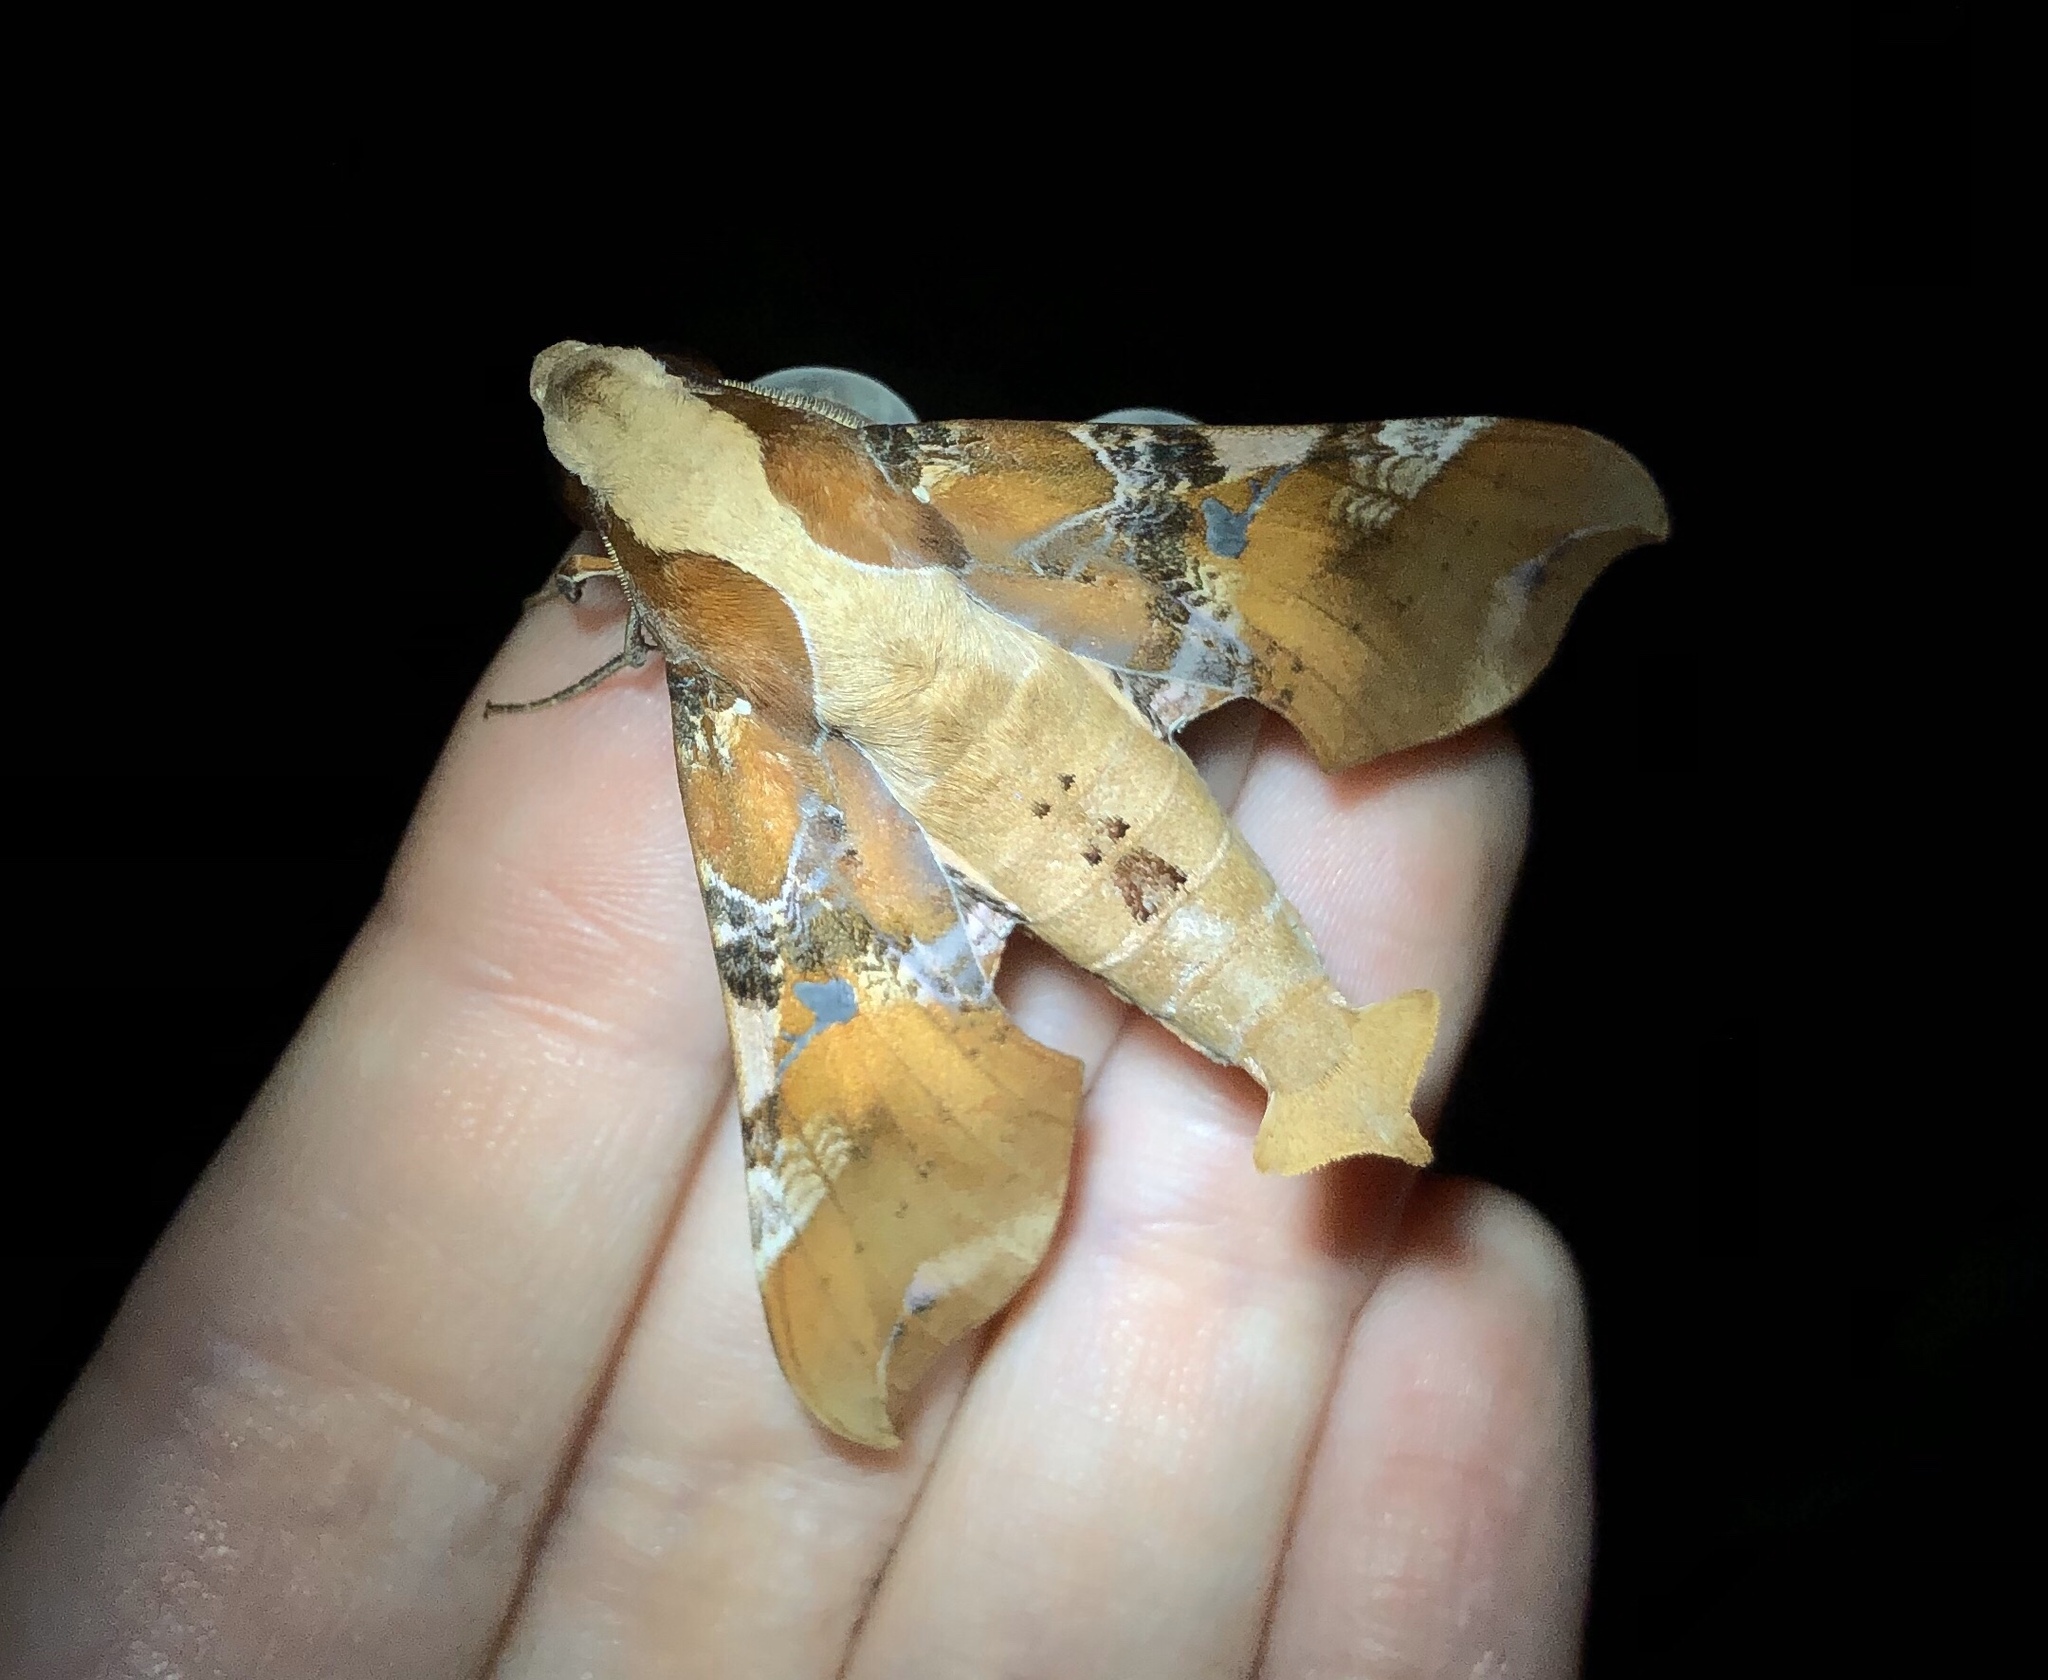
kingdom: Animalia
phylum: Arthropoda
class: Insecta
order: Lepidoptera
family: Sphingidae
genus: Callionima
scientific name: Callionima falcifera
